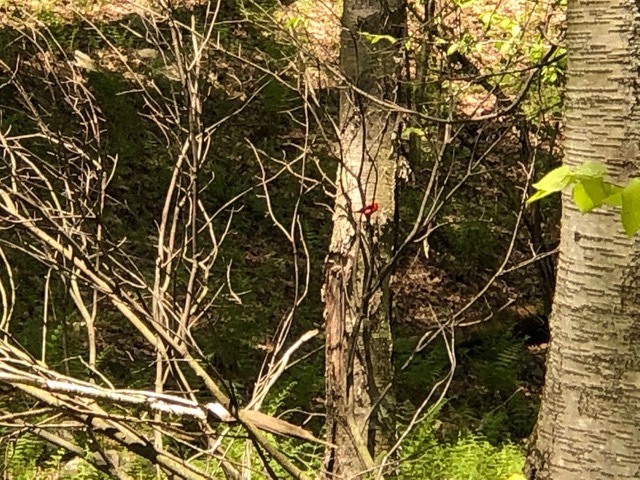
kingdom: Animalia
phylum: Chordata
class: Aves
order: Passeriformes
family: Cardinalidae
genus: Piranga
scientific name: Piranga olivacea
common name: Scarlet tanager
